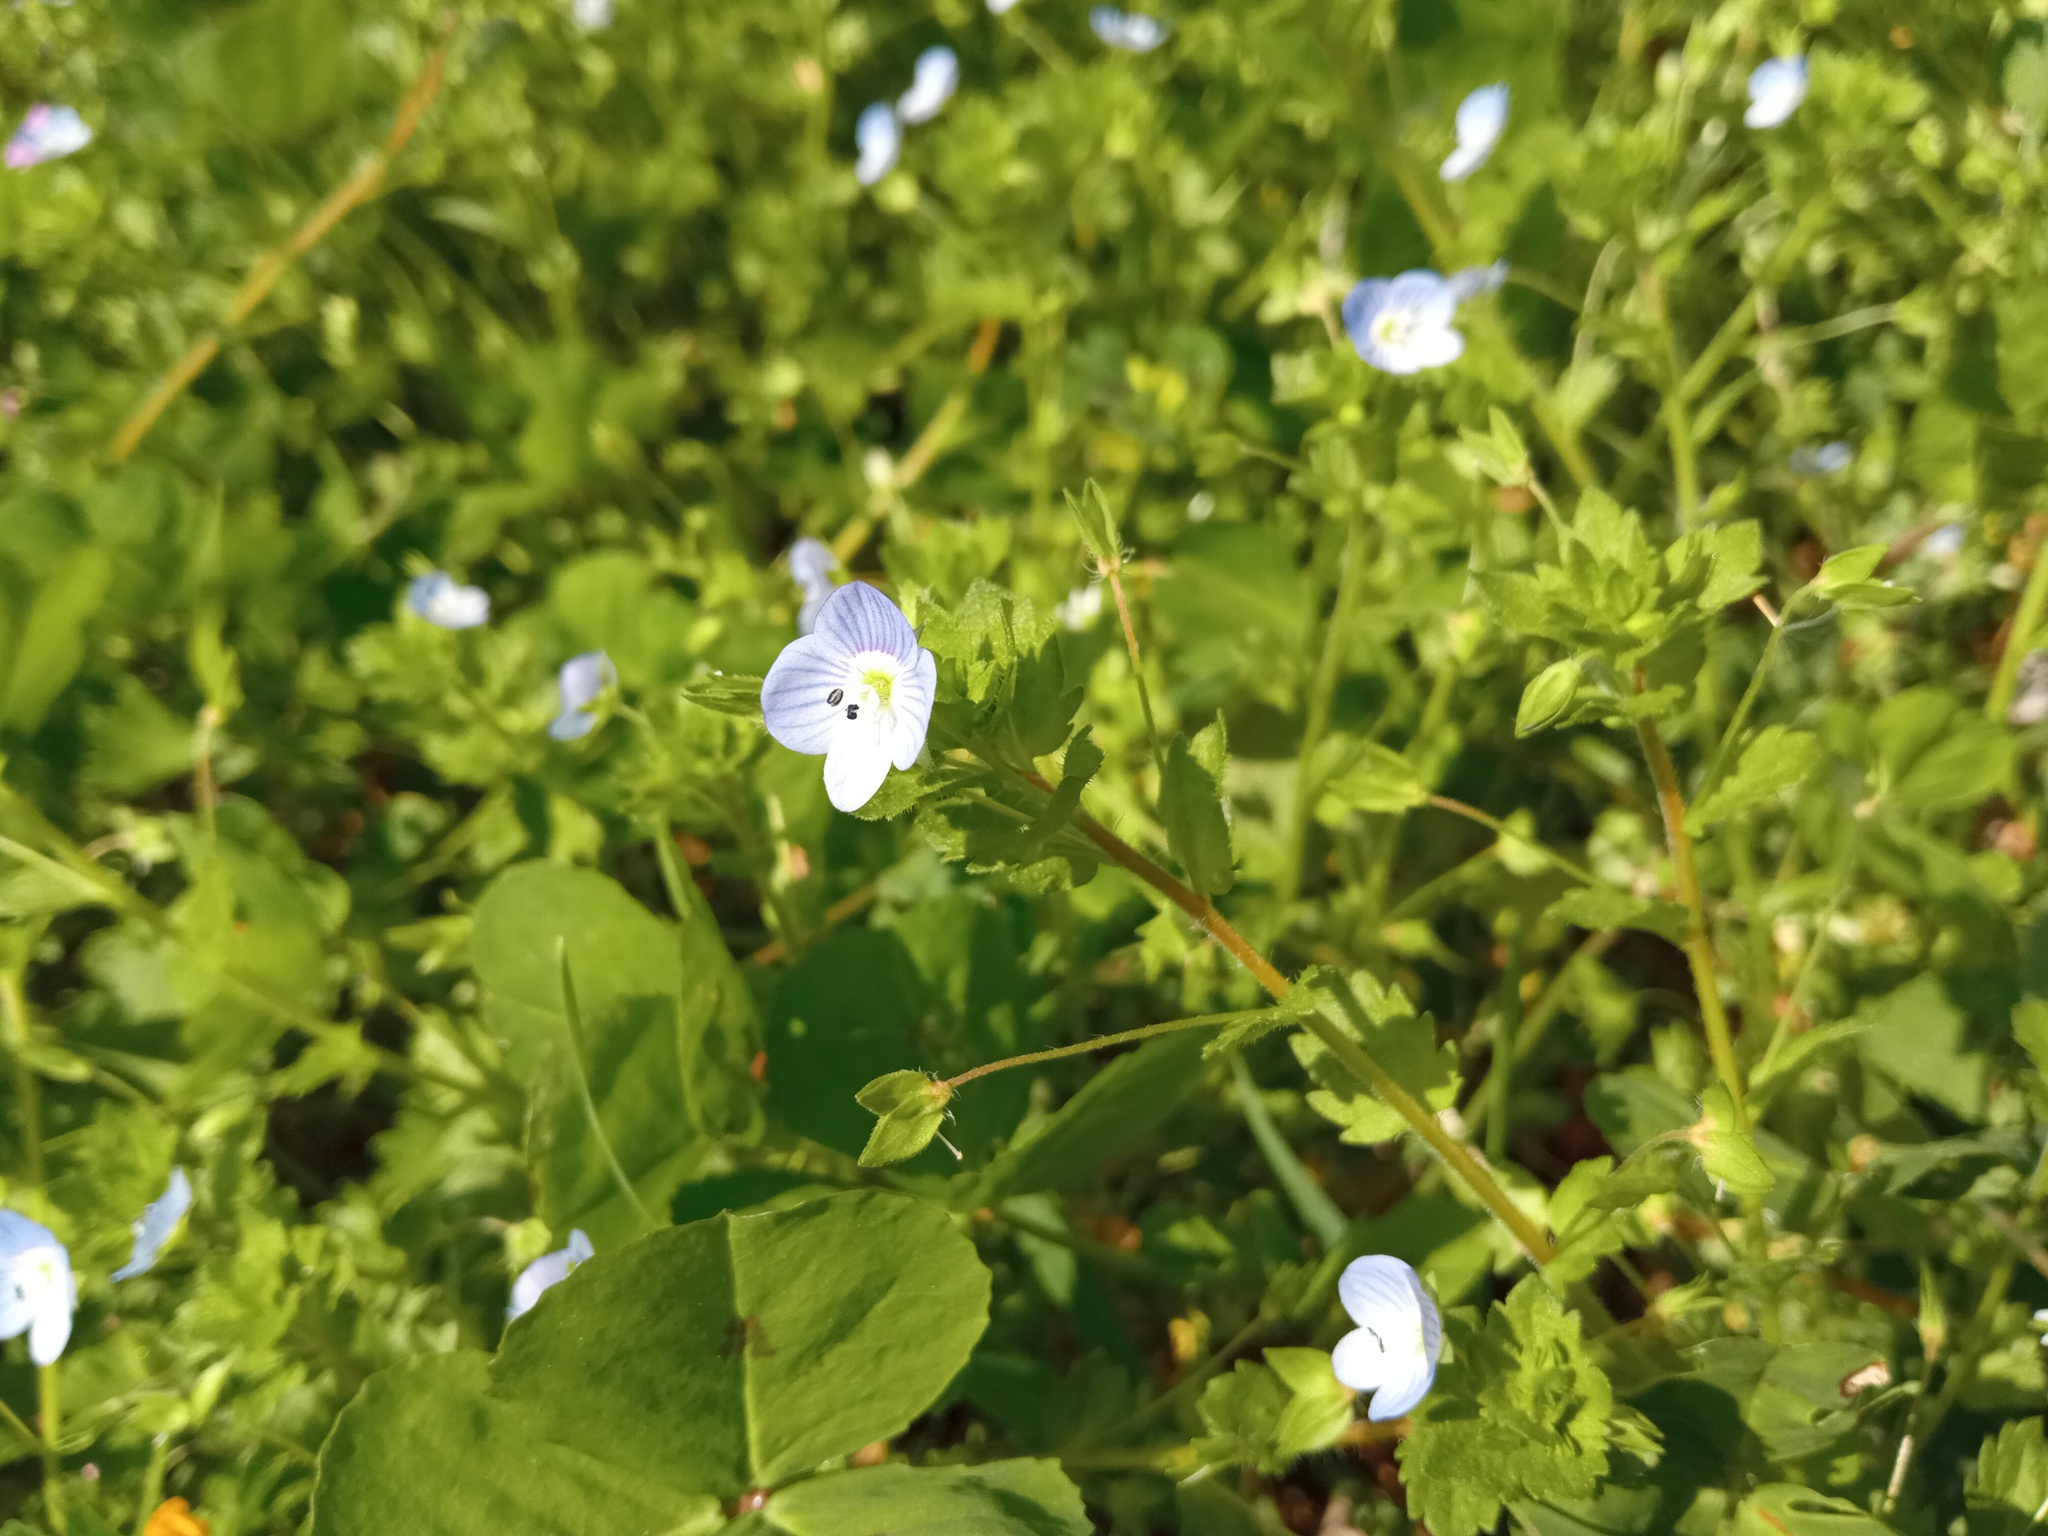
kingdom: Plantae
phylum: Tracheophyta
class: Magnoliopsida
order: Lamiales
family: Plantaginaceae
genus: Veronica
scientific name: Veronica persica
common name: Common field-speedwell
